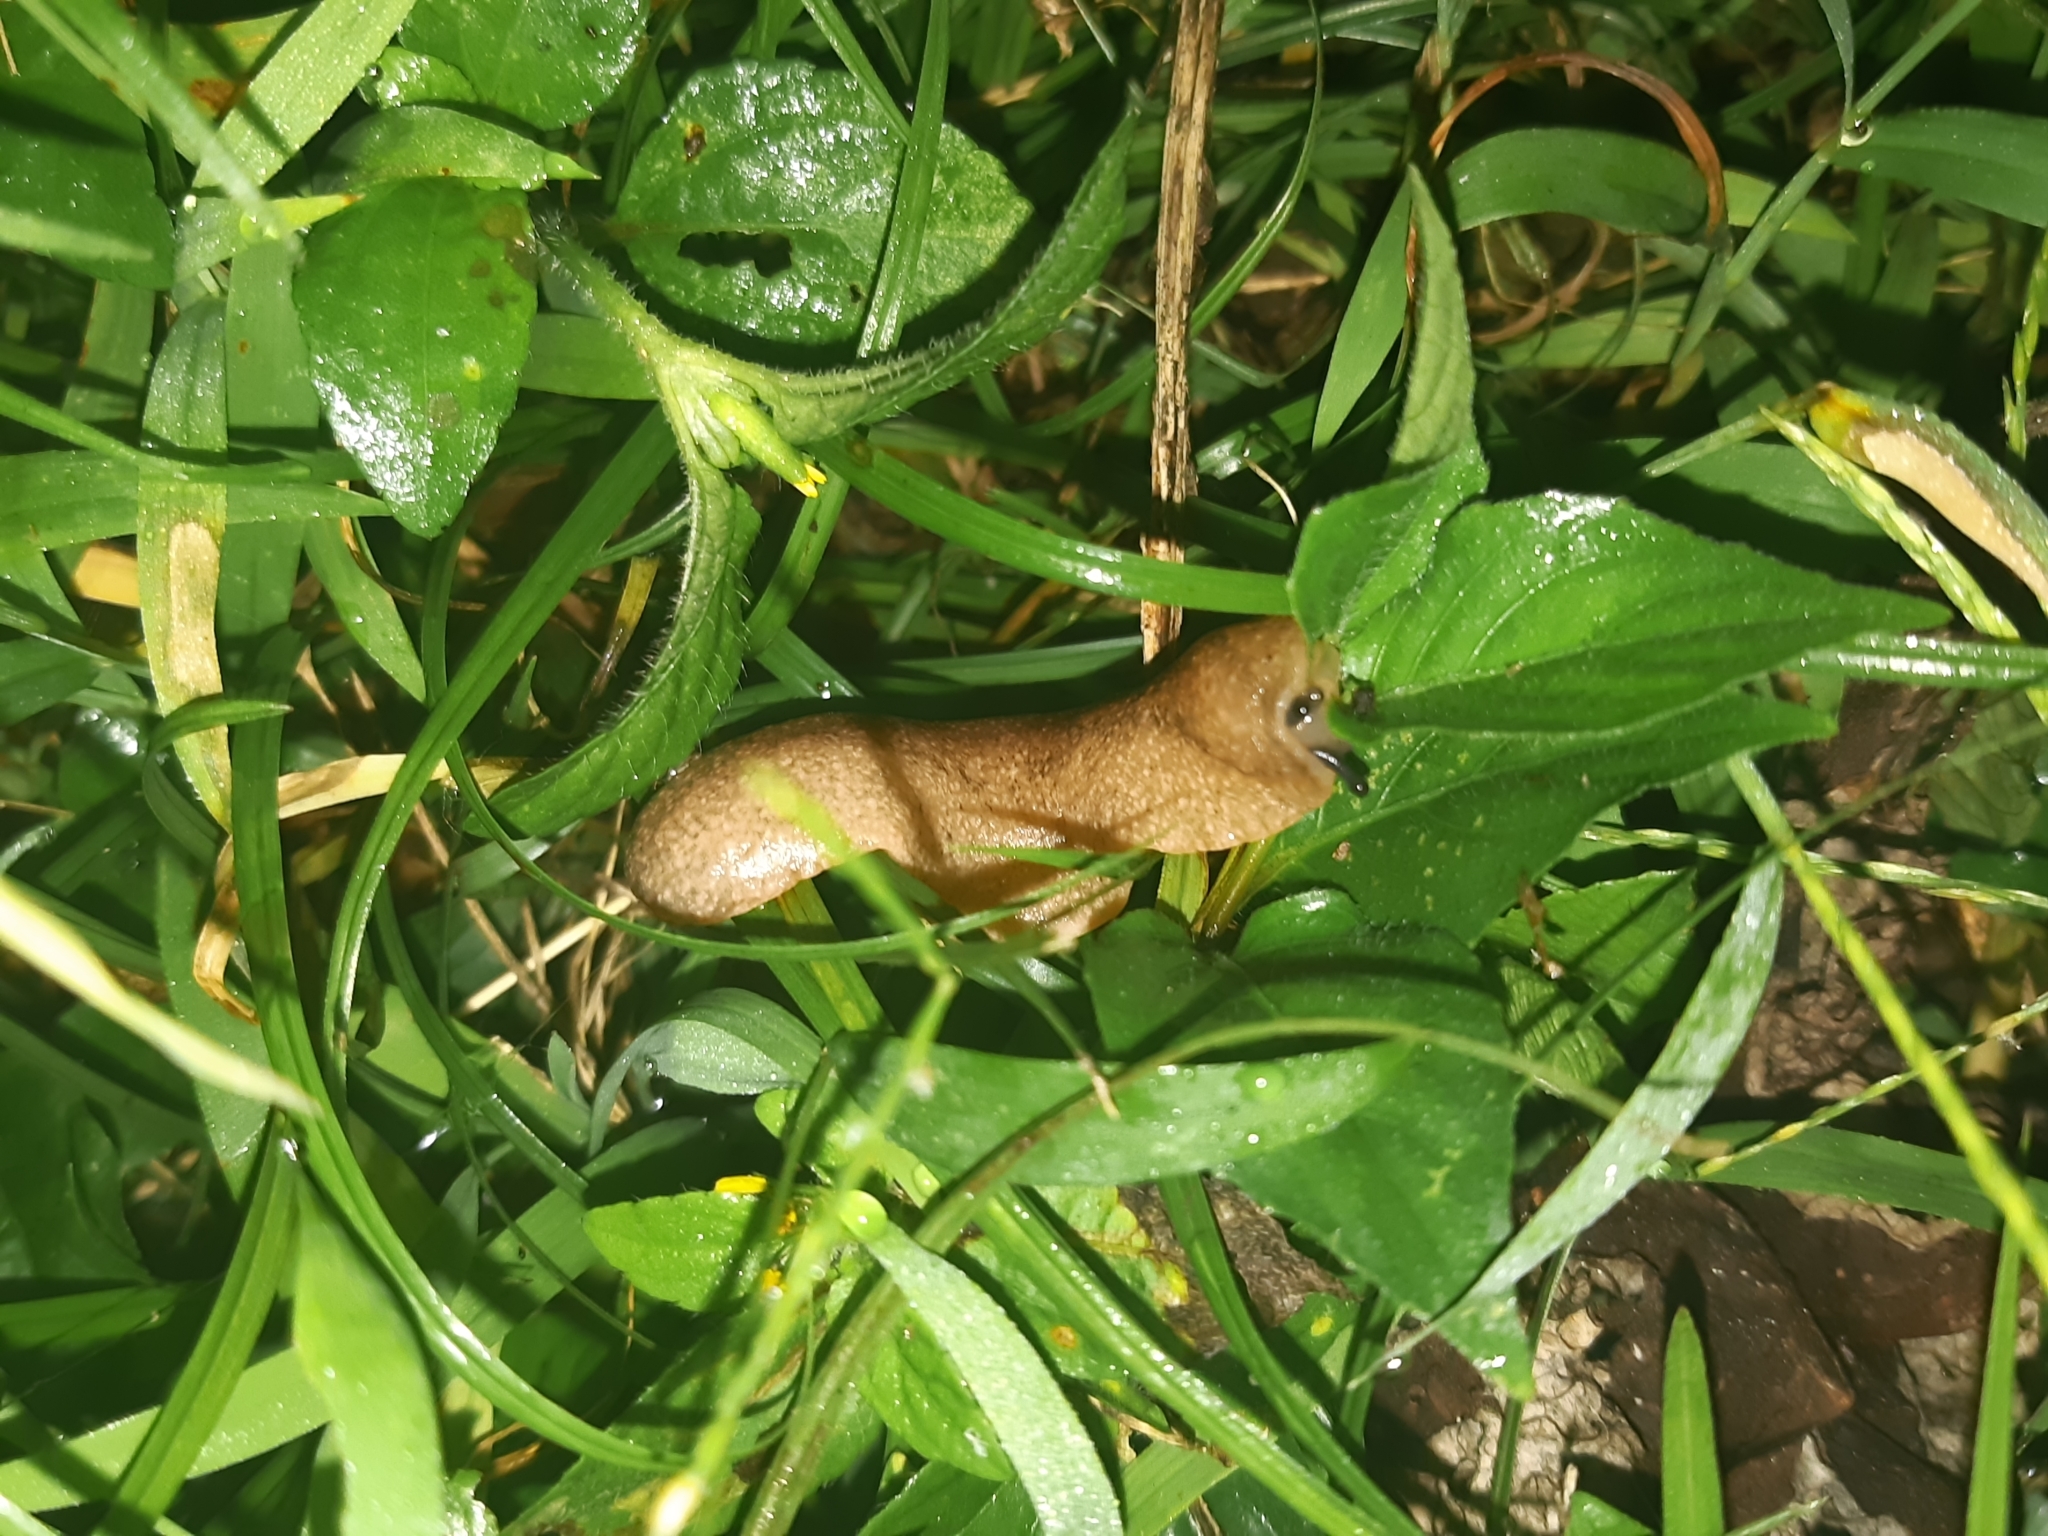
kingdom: Animalia
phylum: Mollusca
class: Gastropoda
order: Systellommatophora
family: Veronicellidae
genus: Sarasinula
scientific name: Sarasinula plebeia
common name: Caribbean leatherleaf
